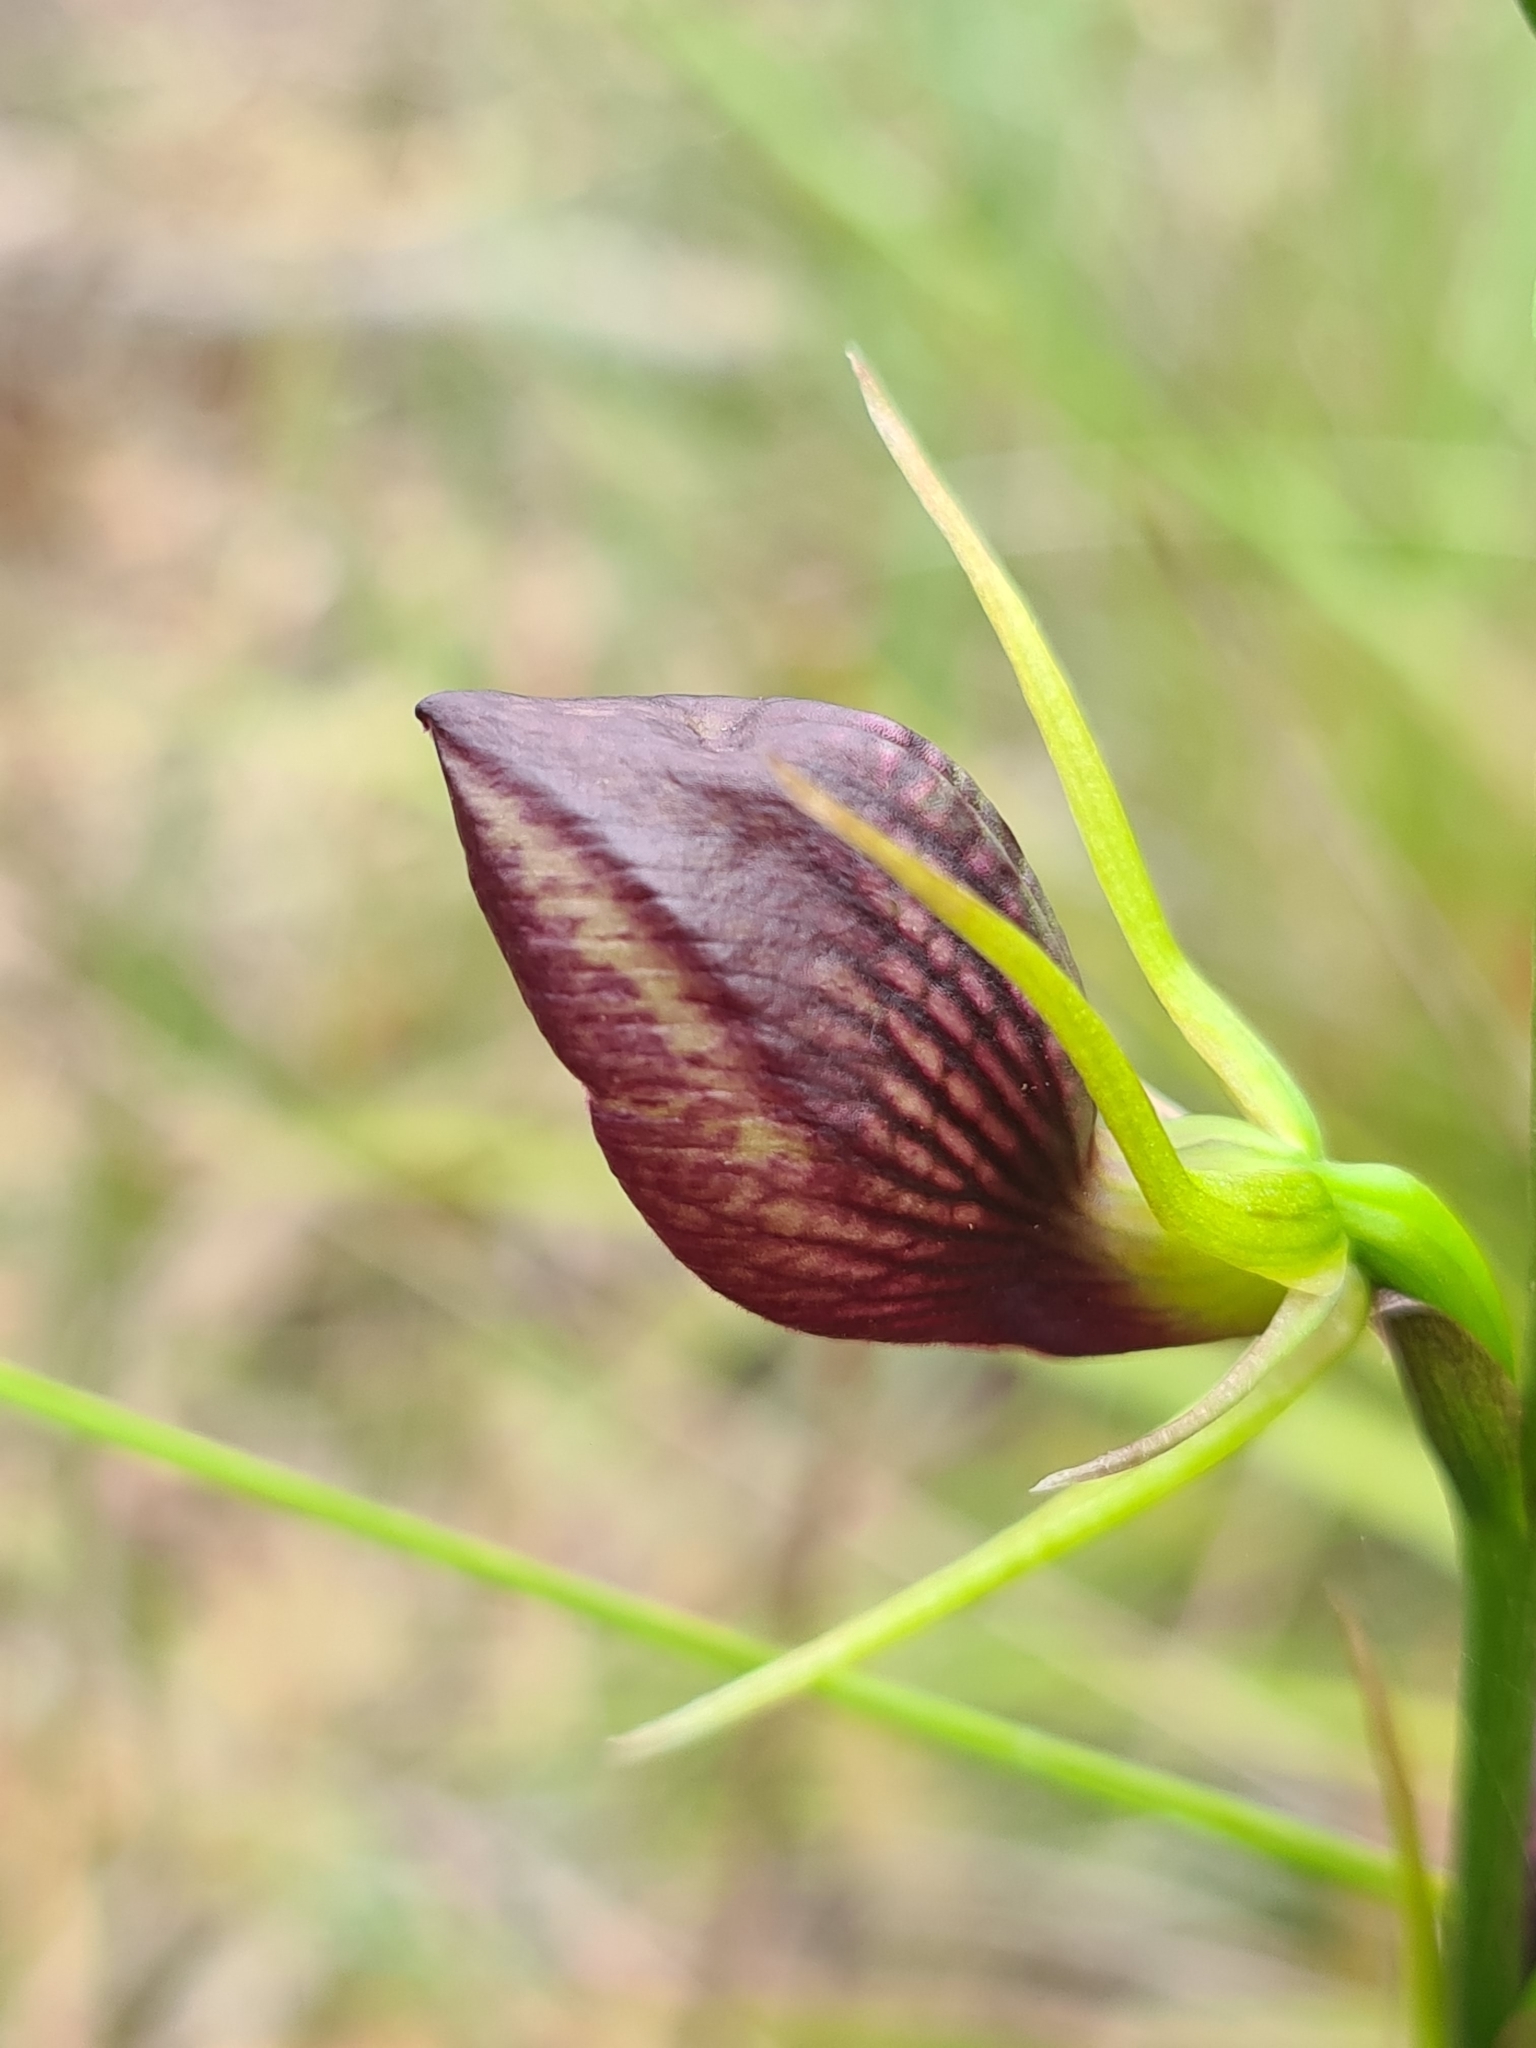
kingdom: Plantae
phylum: Tracheophyta
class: Liliopsida
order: Asparagales
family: Orchidaceae
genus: Cryptostylis
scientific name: Cryptostylis erecta
